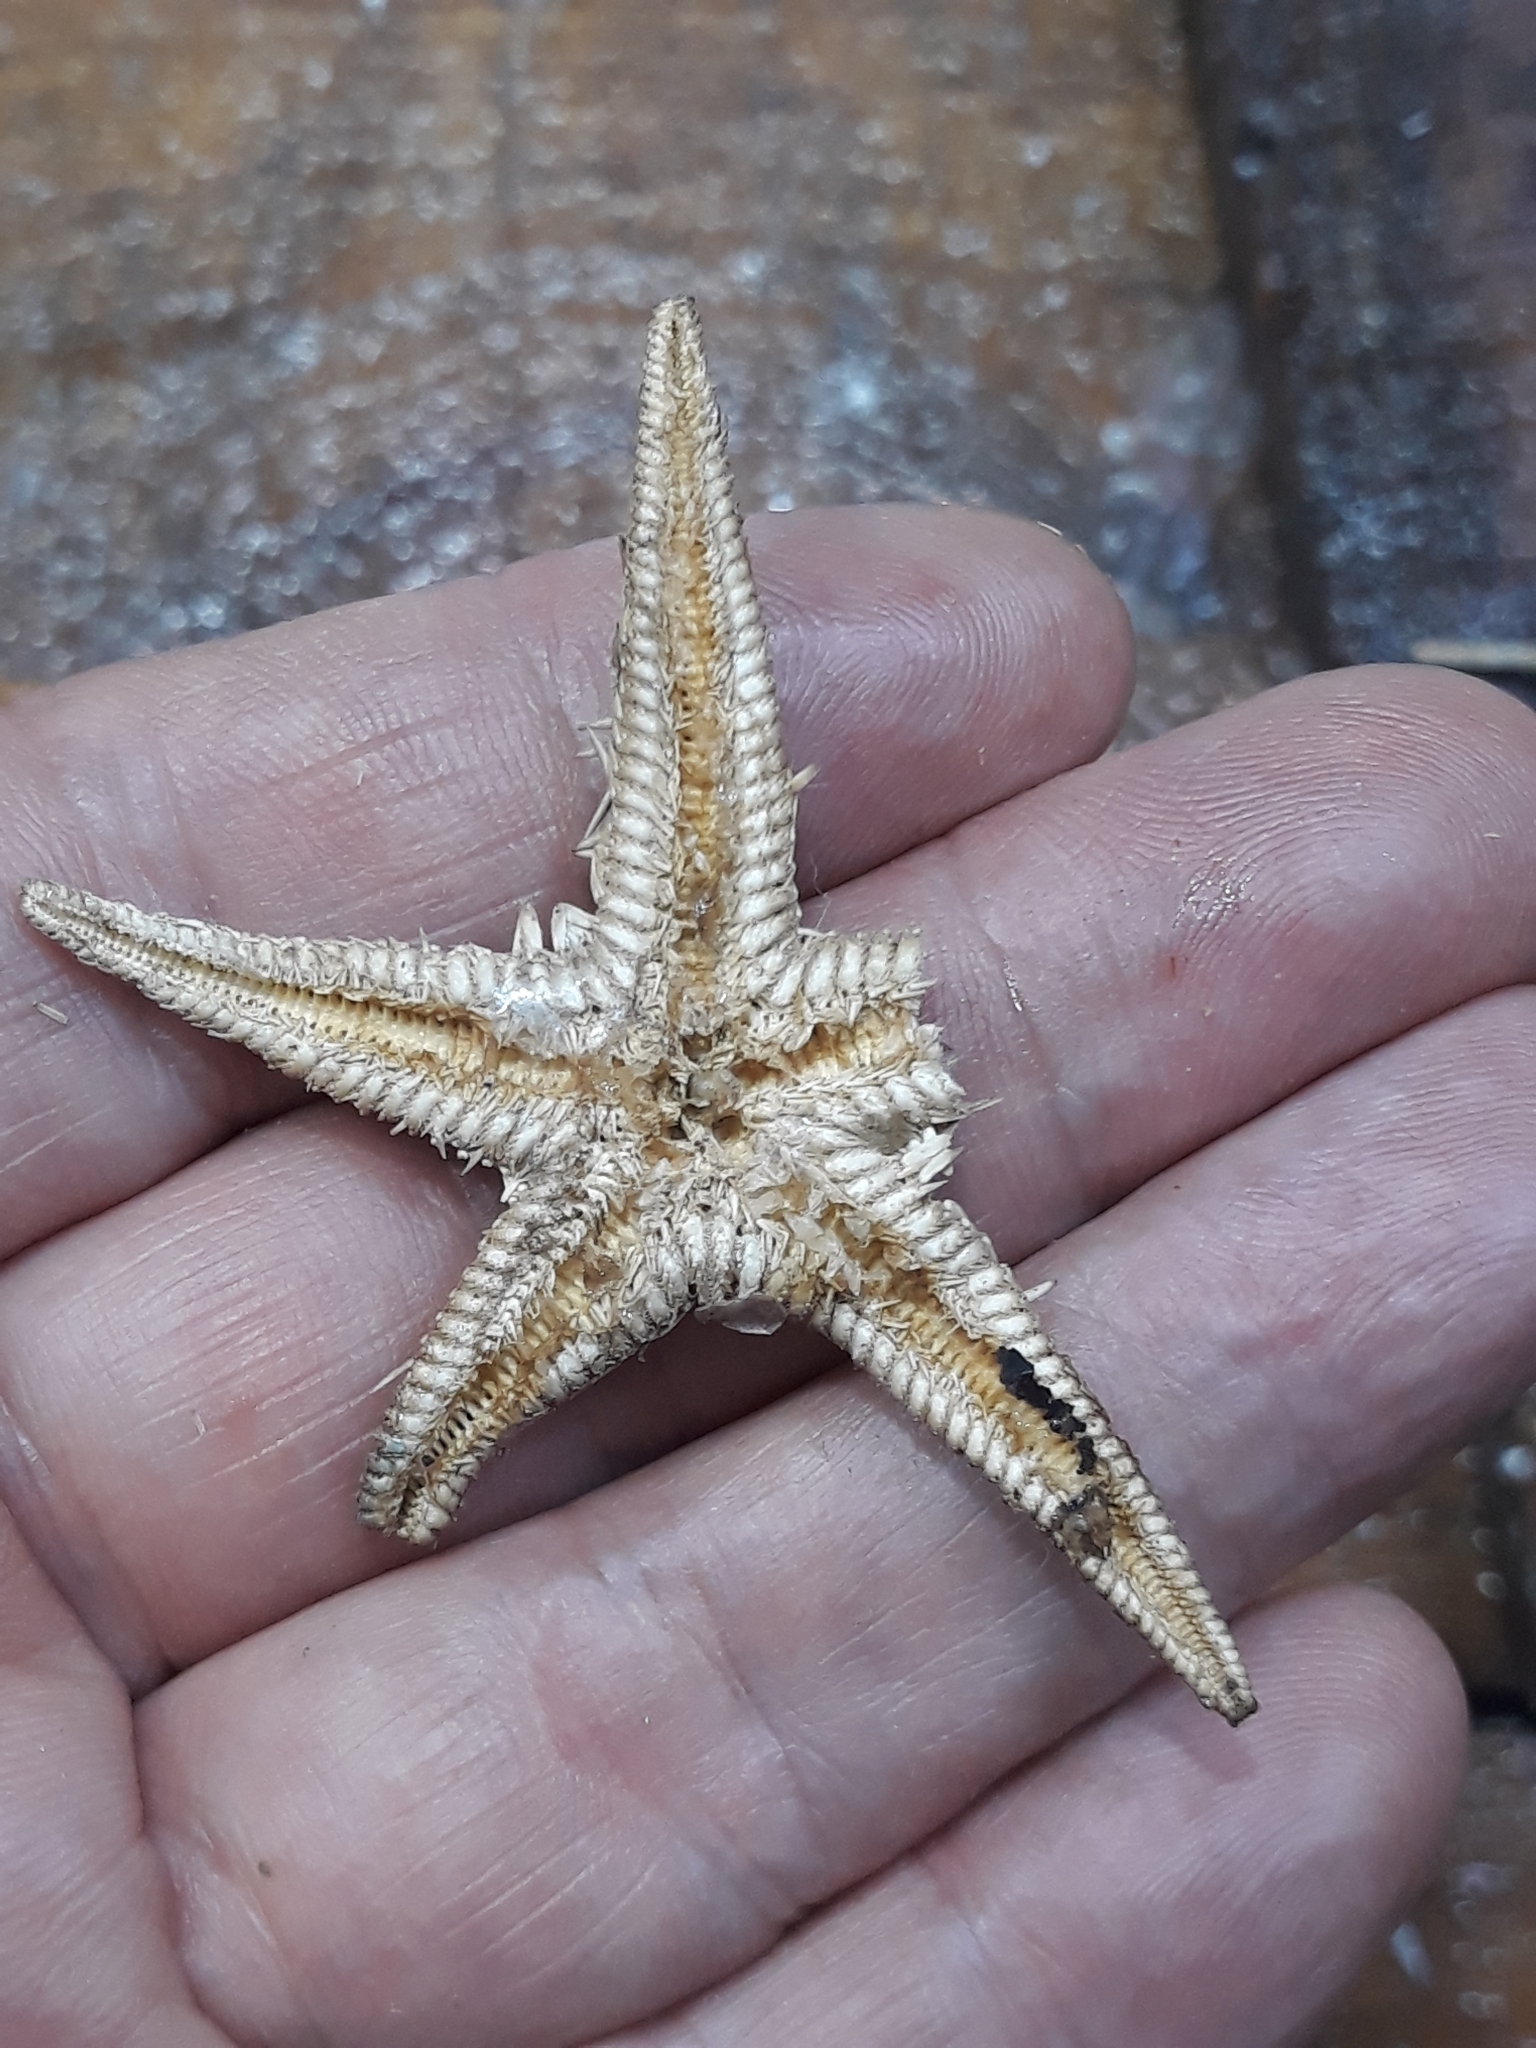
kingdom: Animalia
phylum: Echinodermata
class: Asteroidea
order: Paxillosida
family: Astropectinidae
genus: Astropecten
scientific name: Astropecten bispinosus
